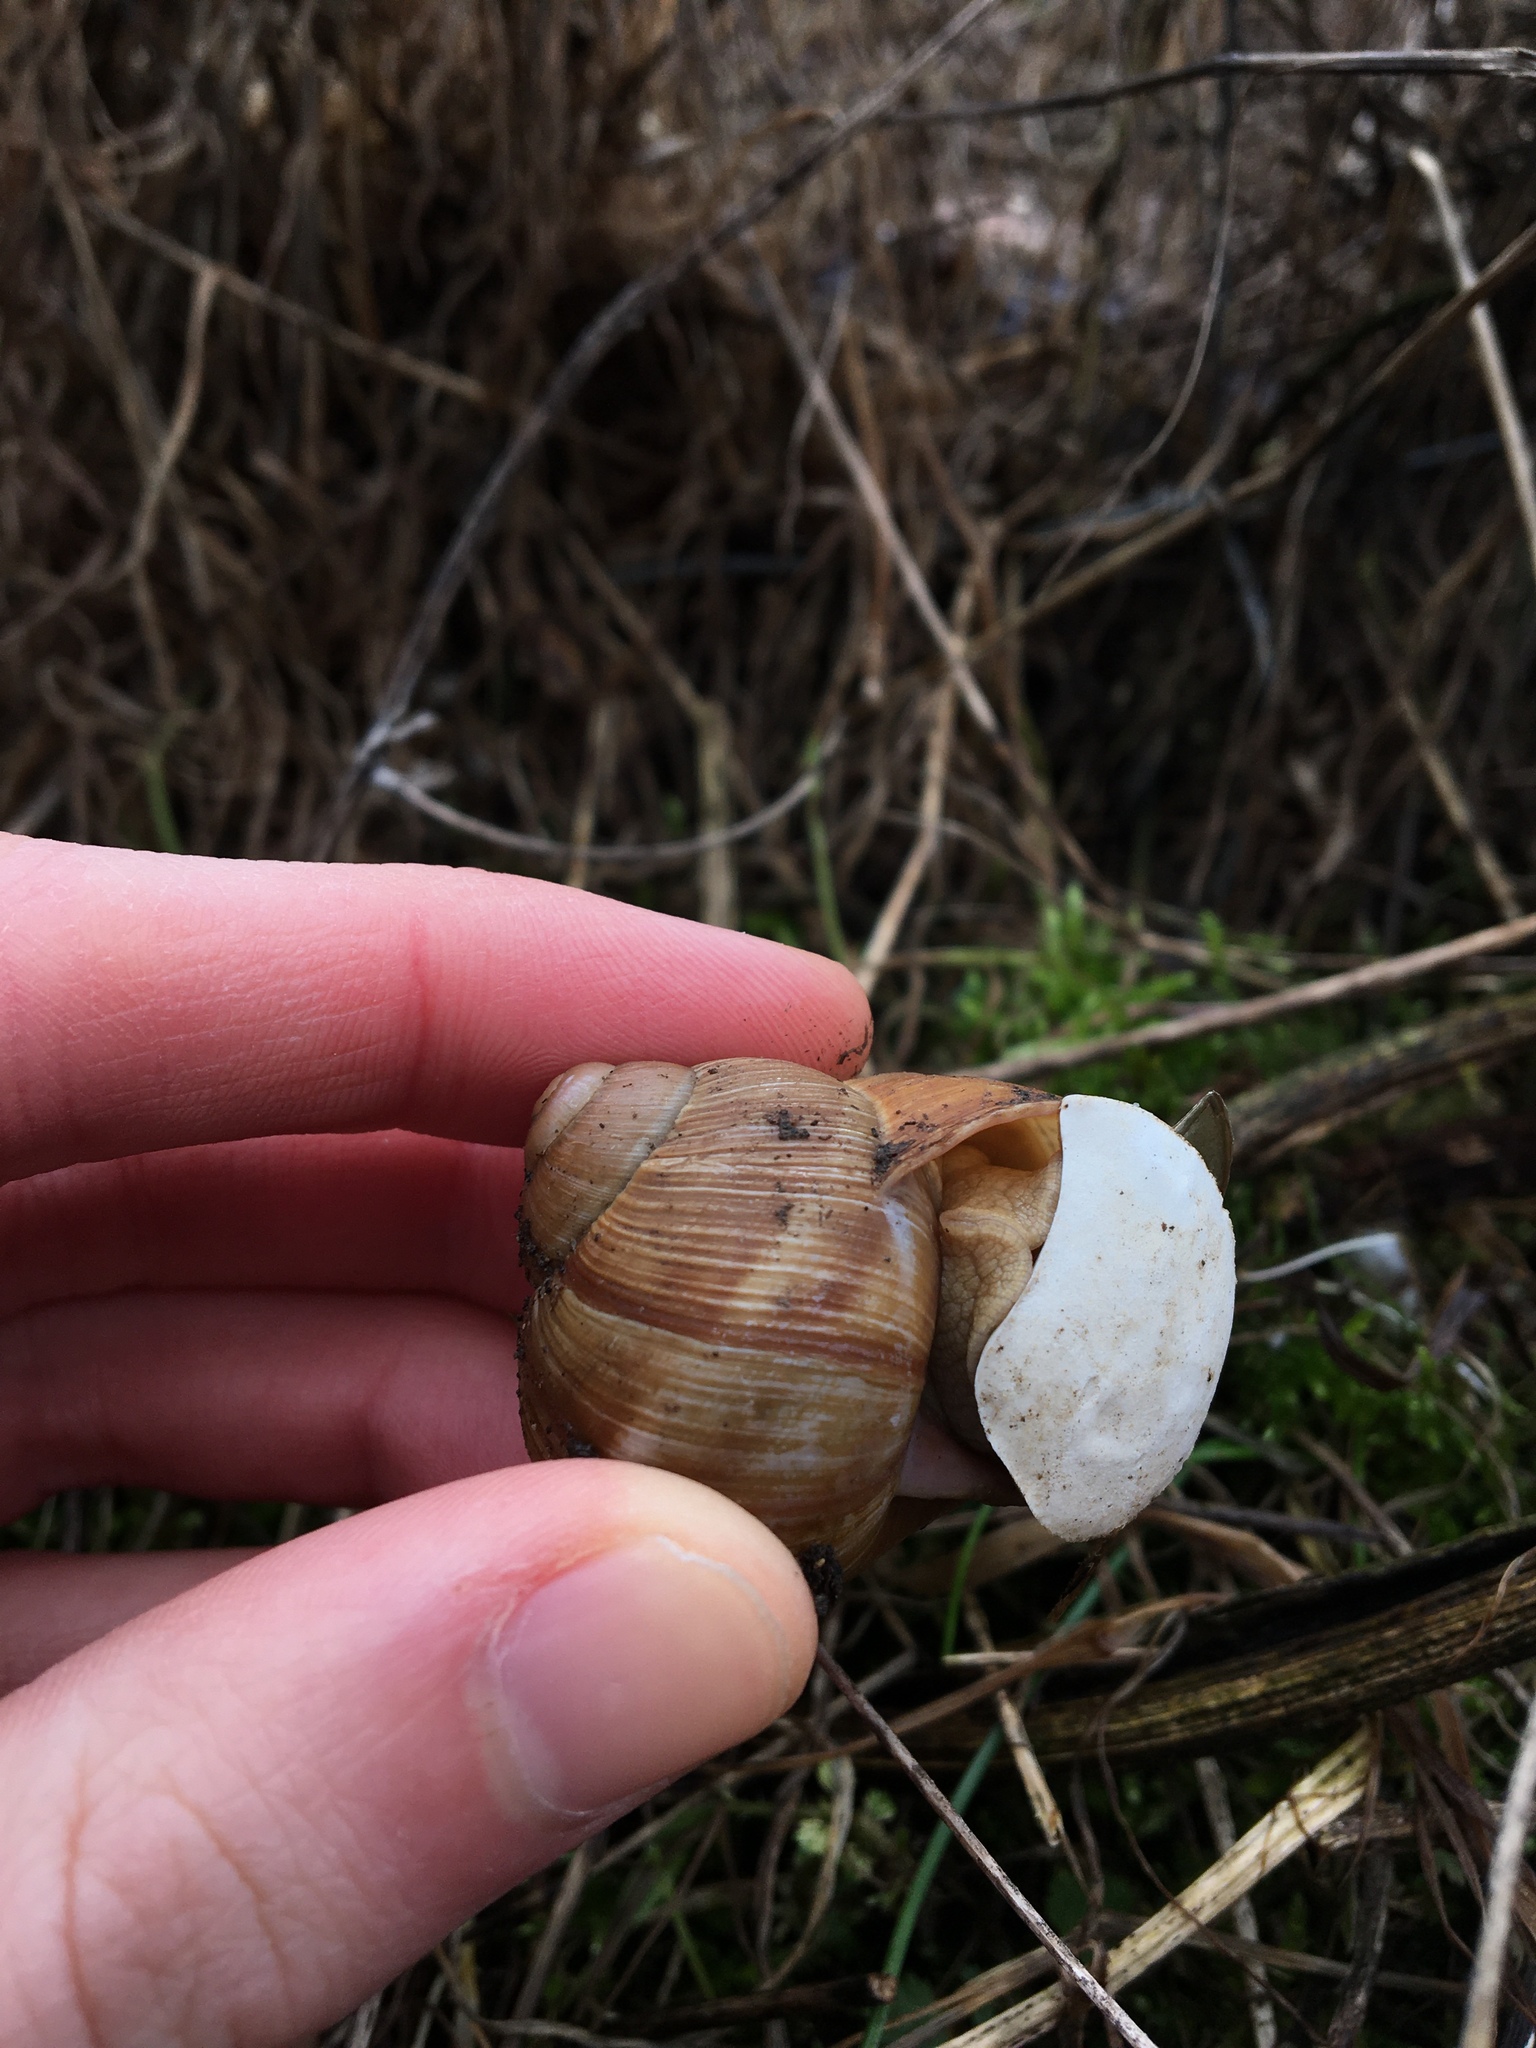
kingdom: Animalia
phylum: Mollusca
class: Gastropoda
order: Stylommatophora
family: Helicidae
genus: Helix
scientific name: Helix pomatia
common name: Roman snail
